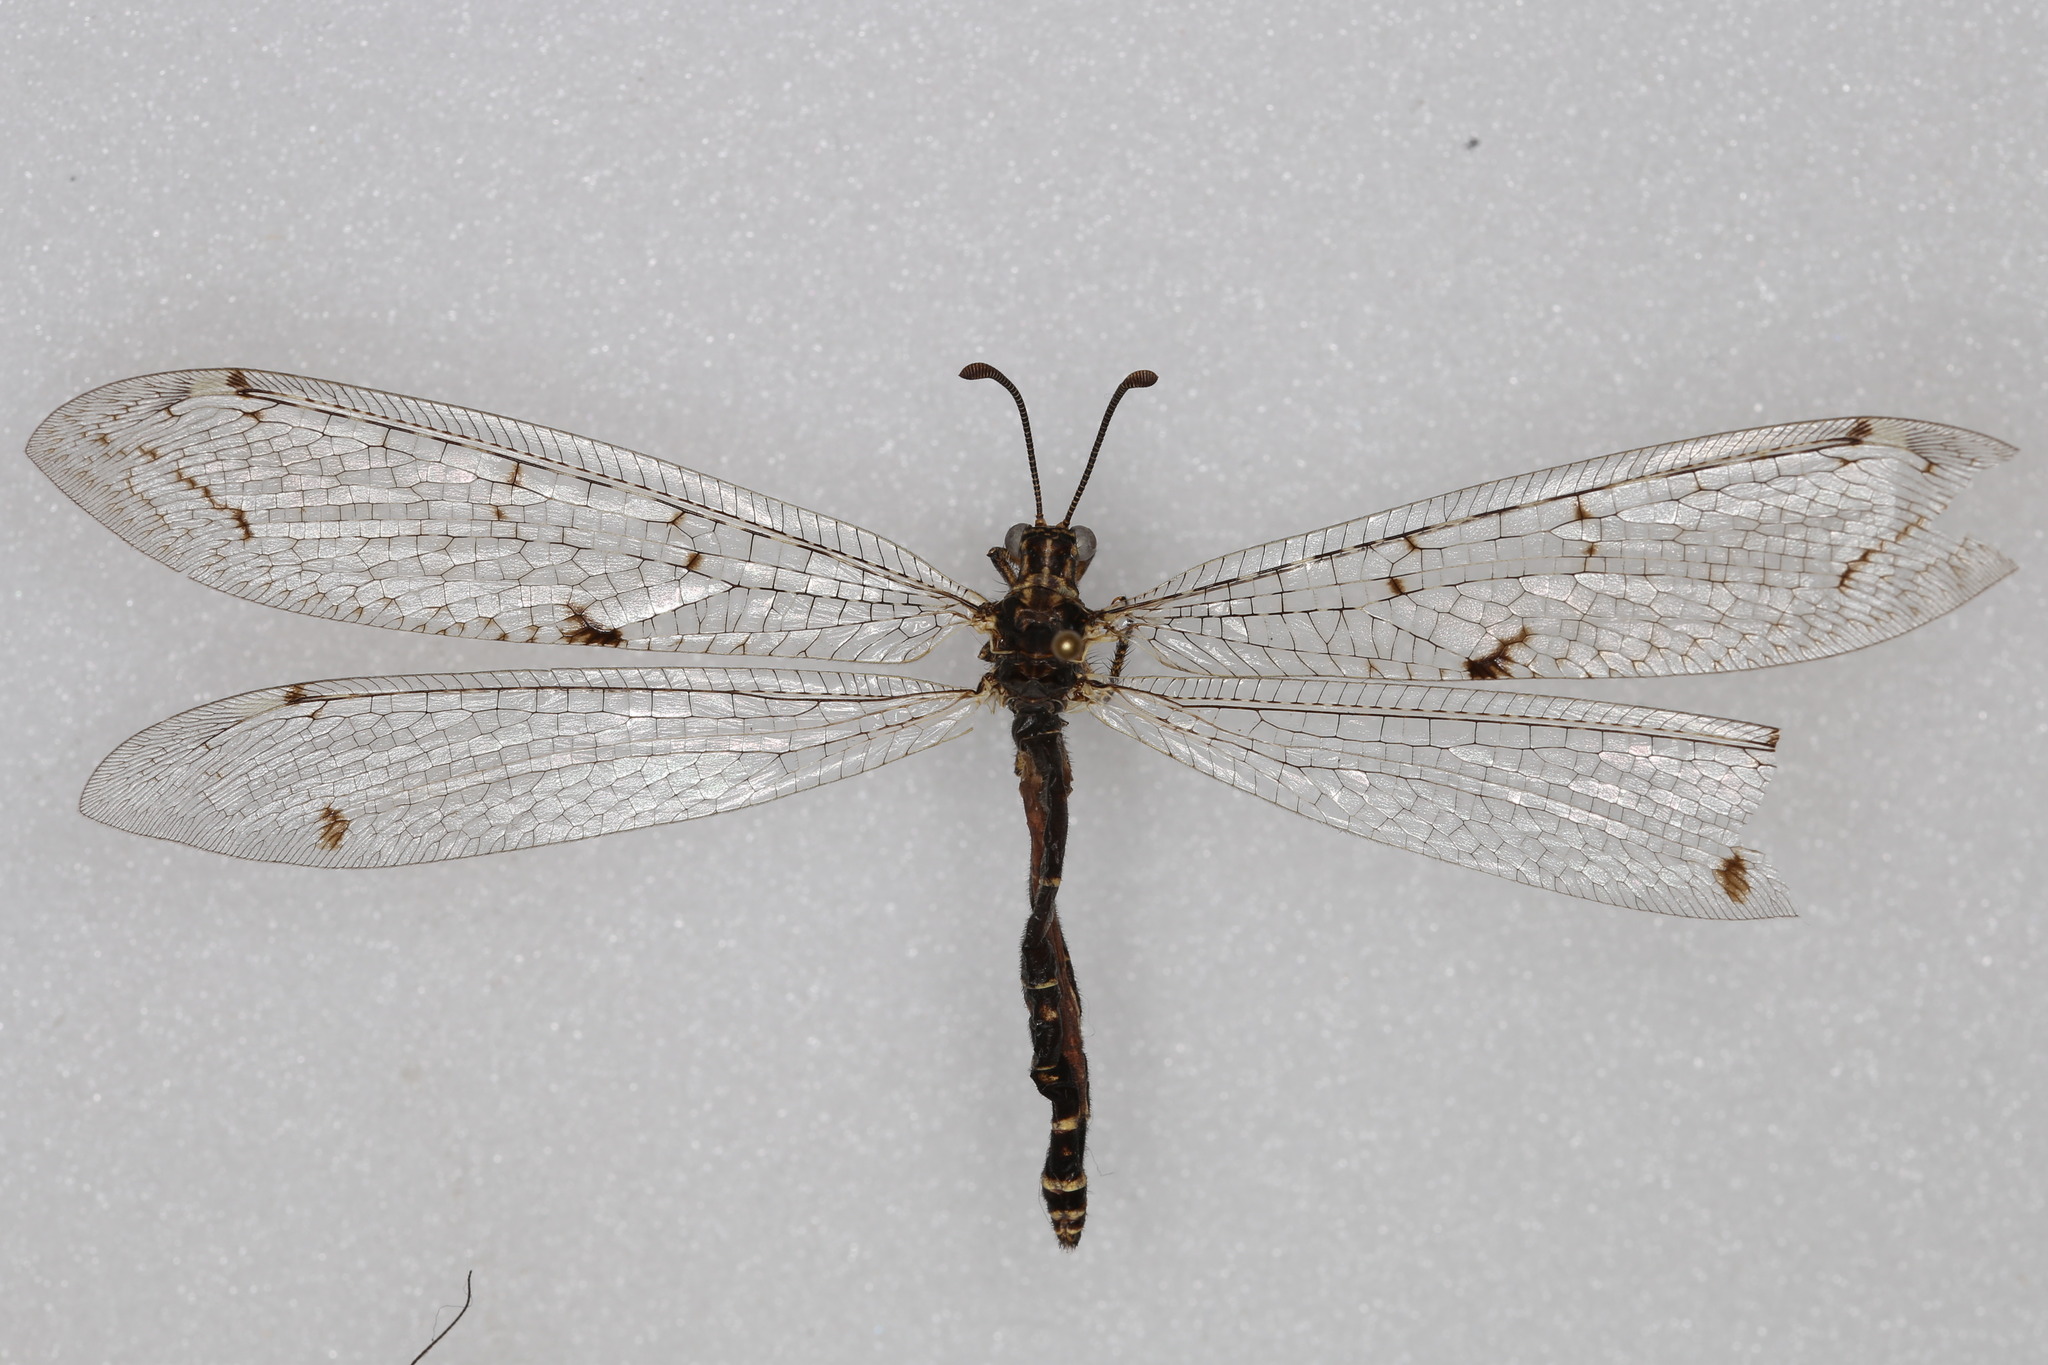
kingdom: Animalia
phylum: Arthropoda
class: Insecta
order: Neuroptera
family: Myrmeleontidae
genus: Distoleon
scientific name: Distoleon tetragrammicus
